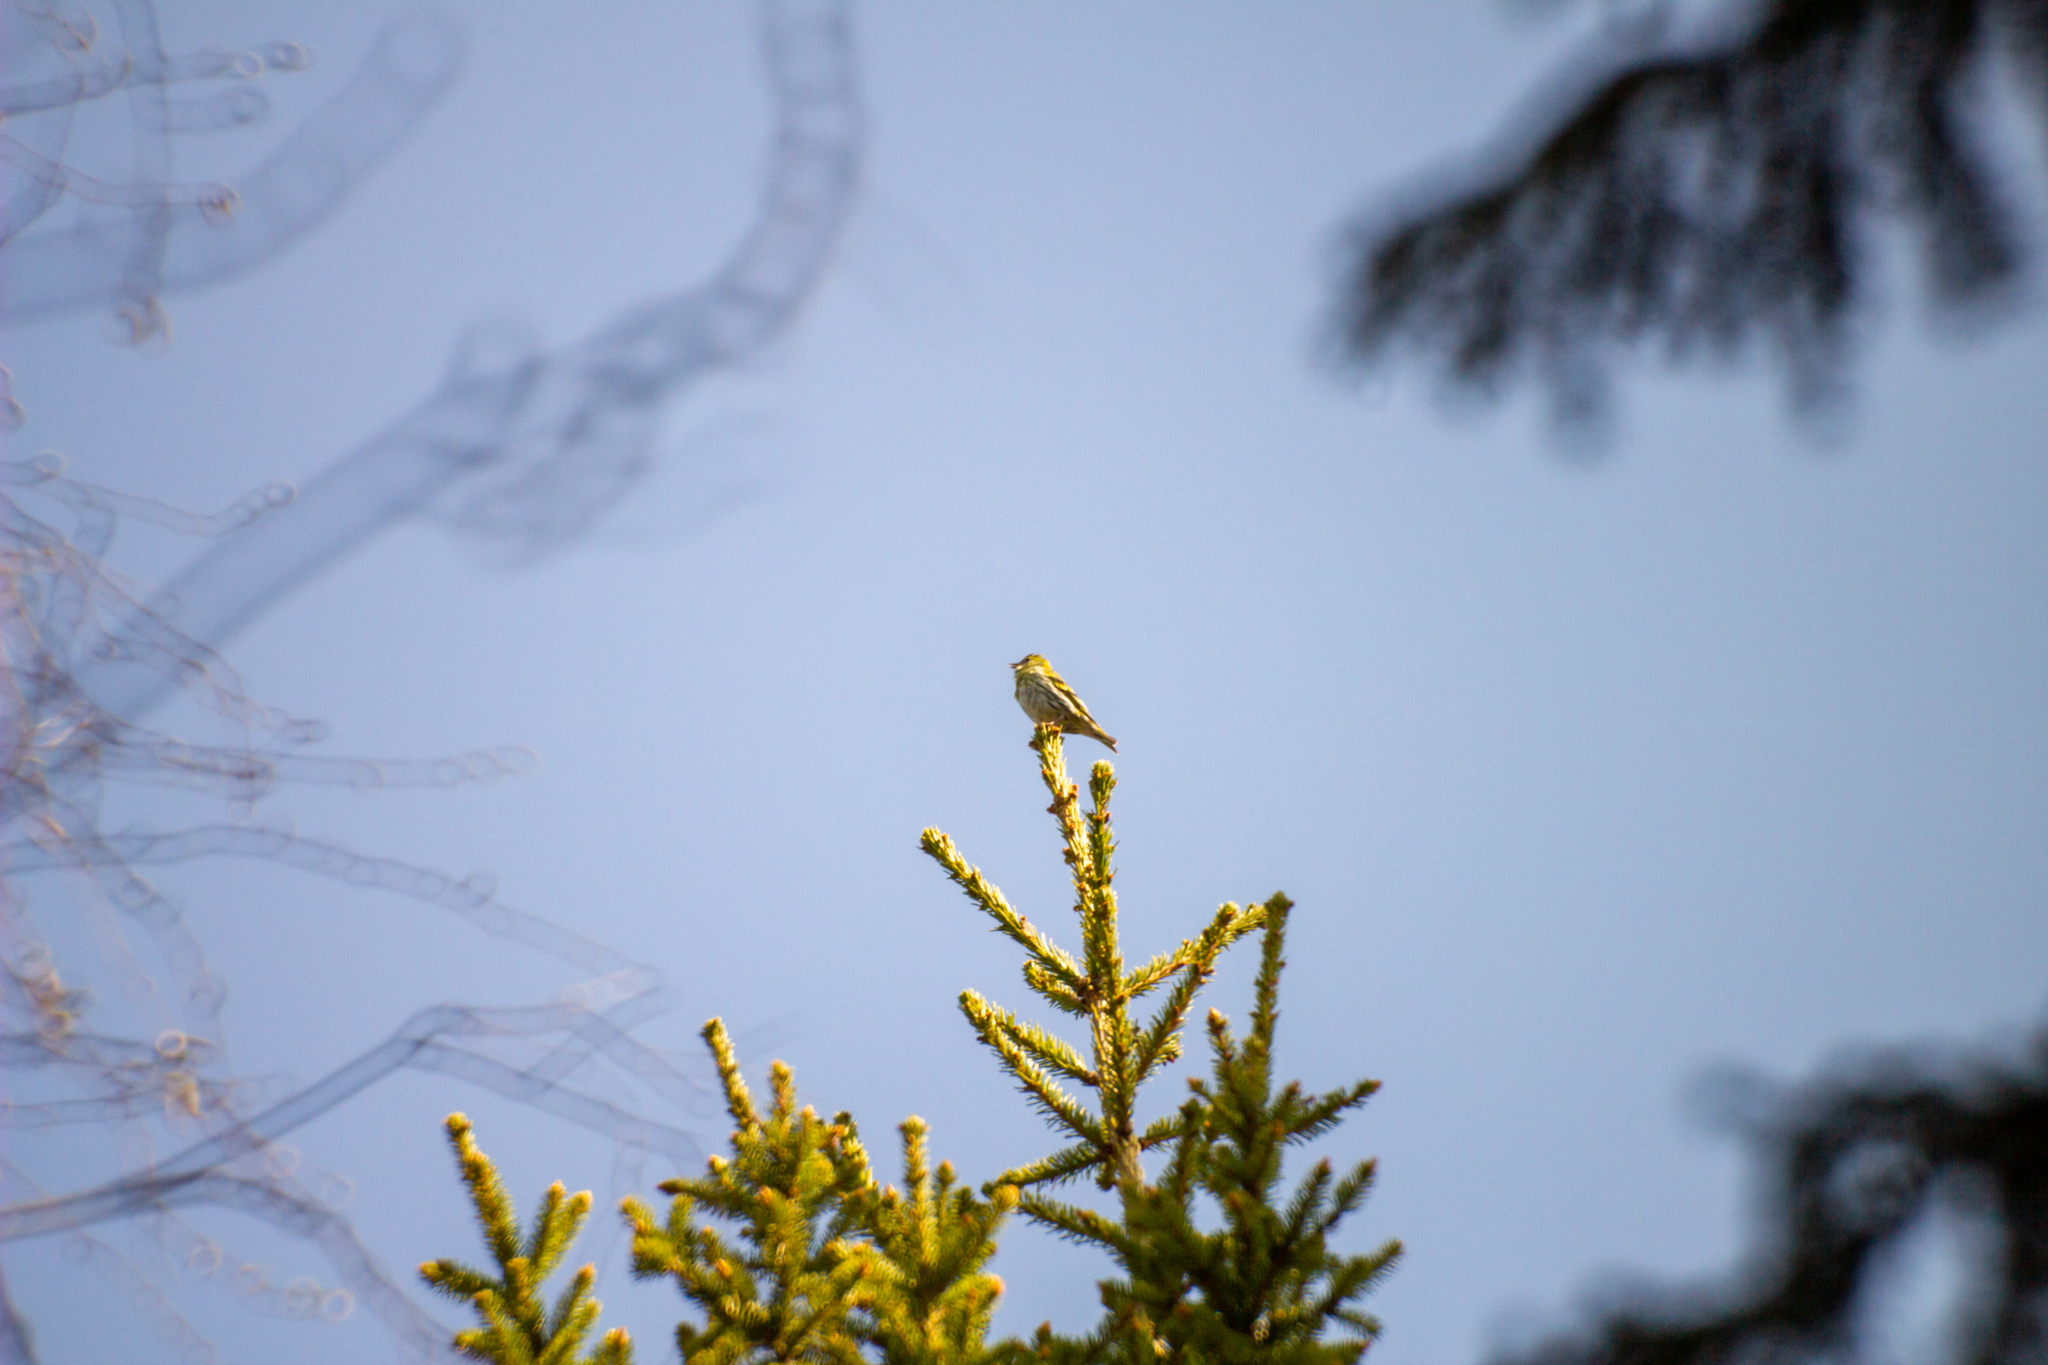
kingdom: Animalia
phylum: Chordata
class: Aves
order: Passeriformes
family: Fringillidae
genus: Spinus
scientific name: Spinus spinus
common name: Eurasian siskin
